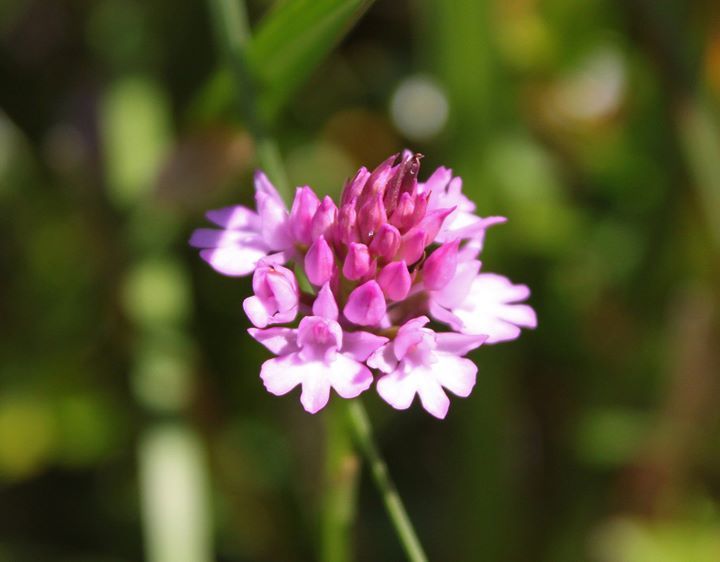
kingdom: Plantae
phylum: Tracheophyta
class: Liliopsida
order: Asparagales
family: Orchidaceae
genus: Anacamptis
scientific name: Anacamptis pyramidalis
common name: Pyramidal orchid
